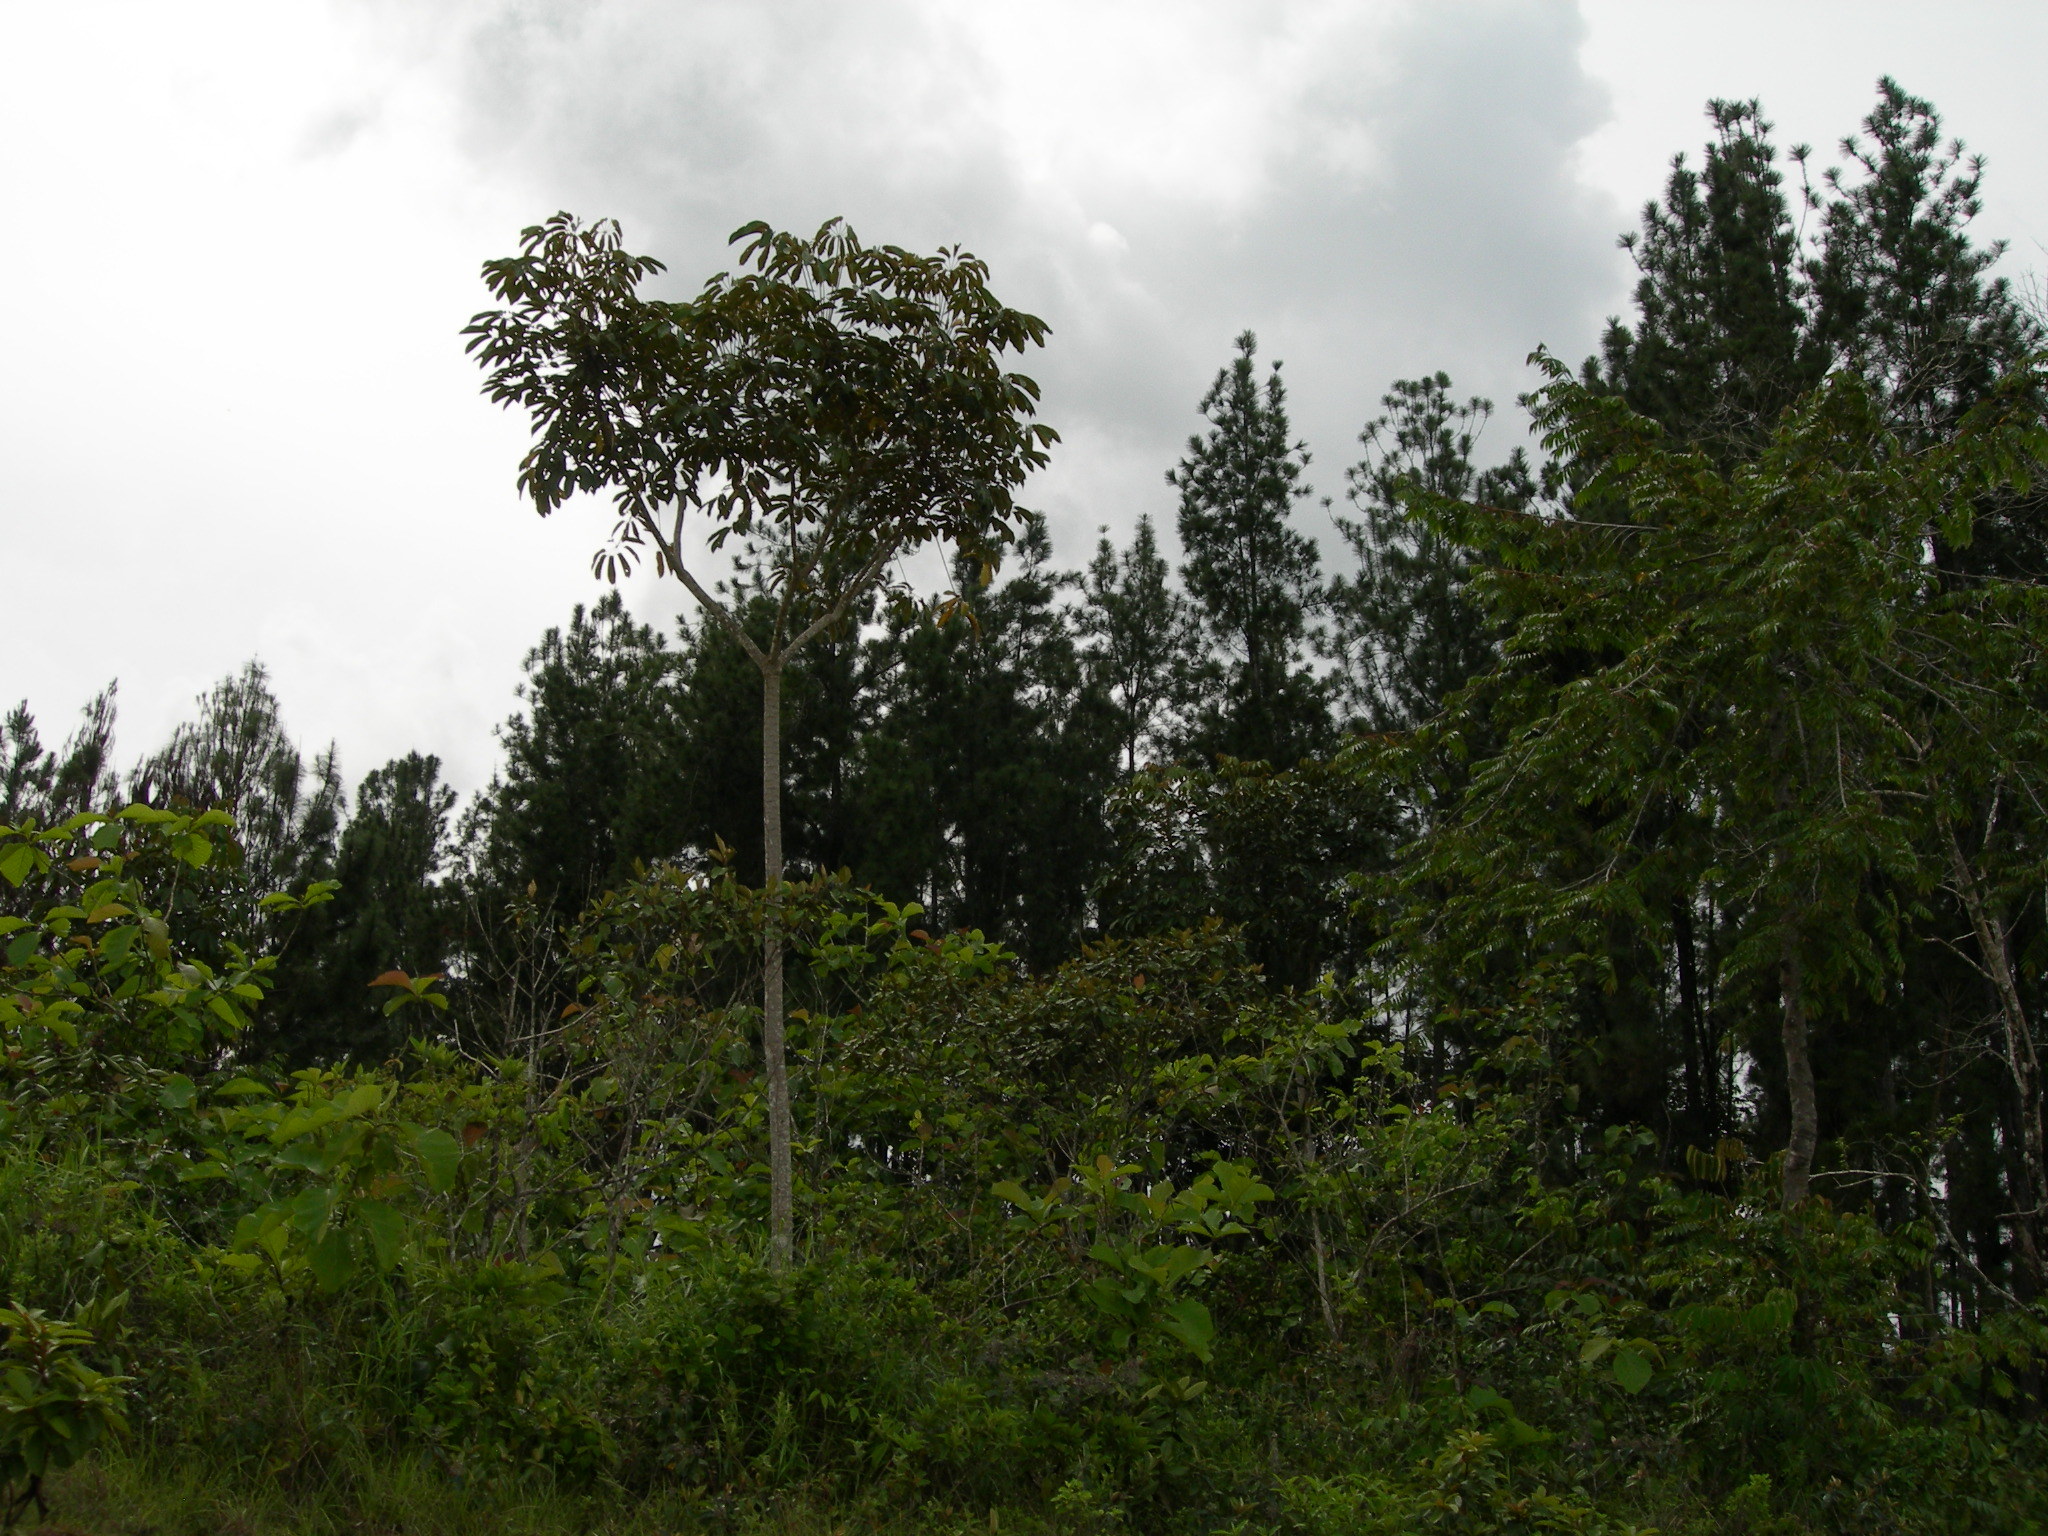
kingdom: Plantae
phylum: Tracheophyta
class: Magnoliopsida
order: Apiales
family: Araliaceae
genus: Didymopanax
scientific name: Didymopanax morototoni
